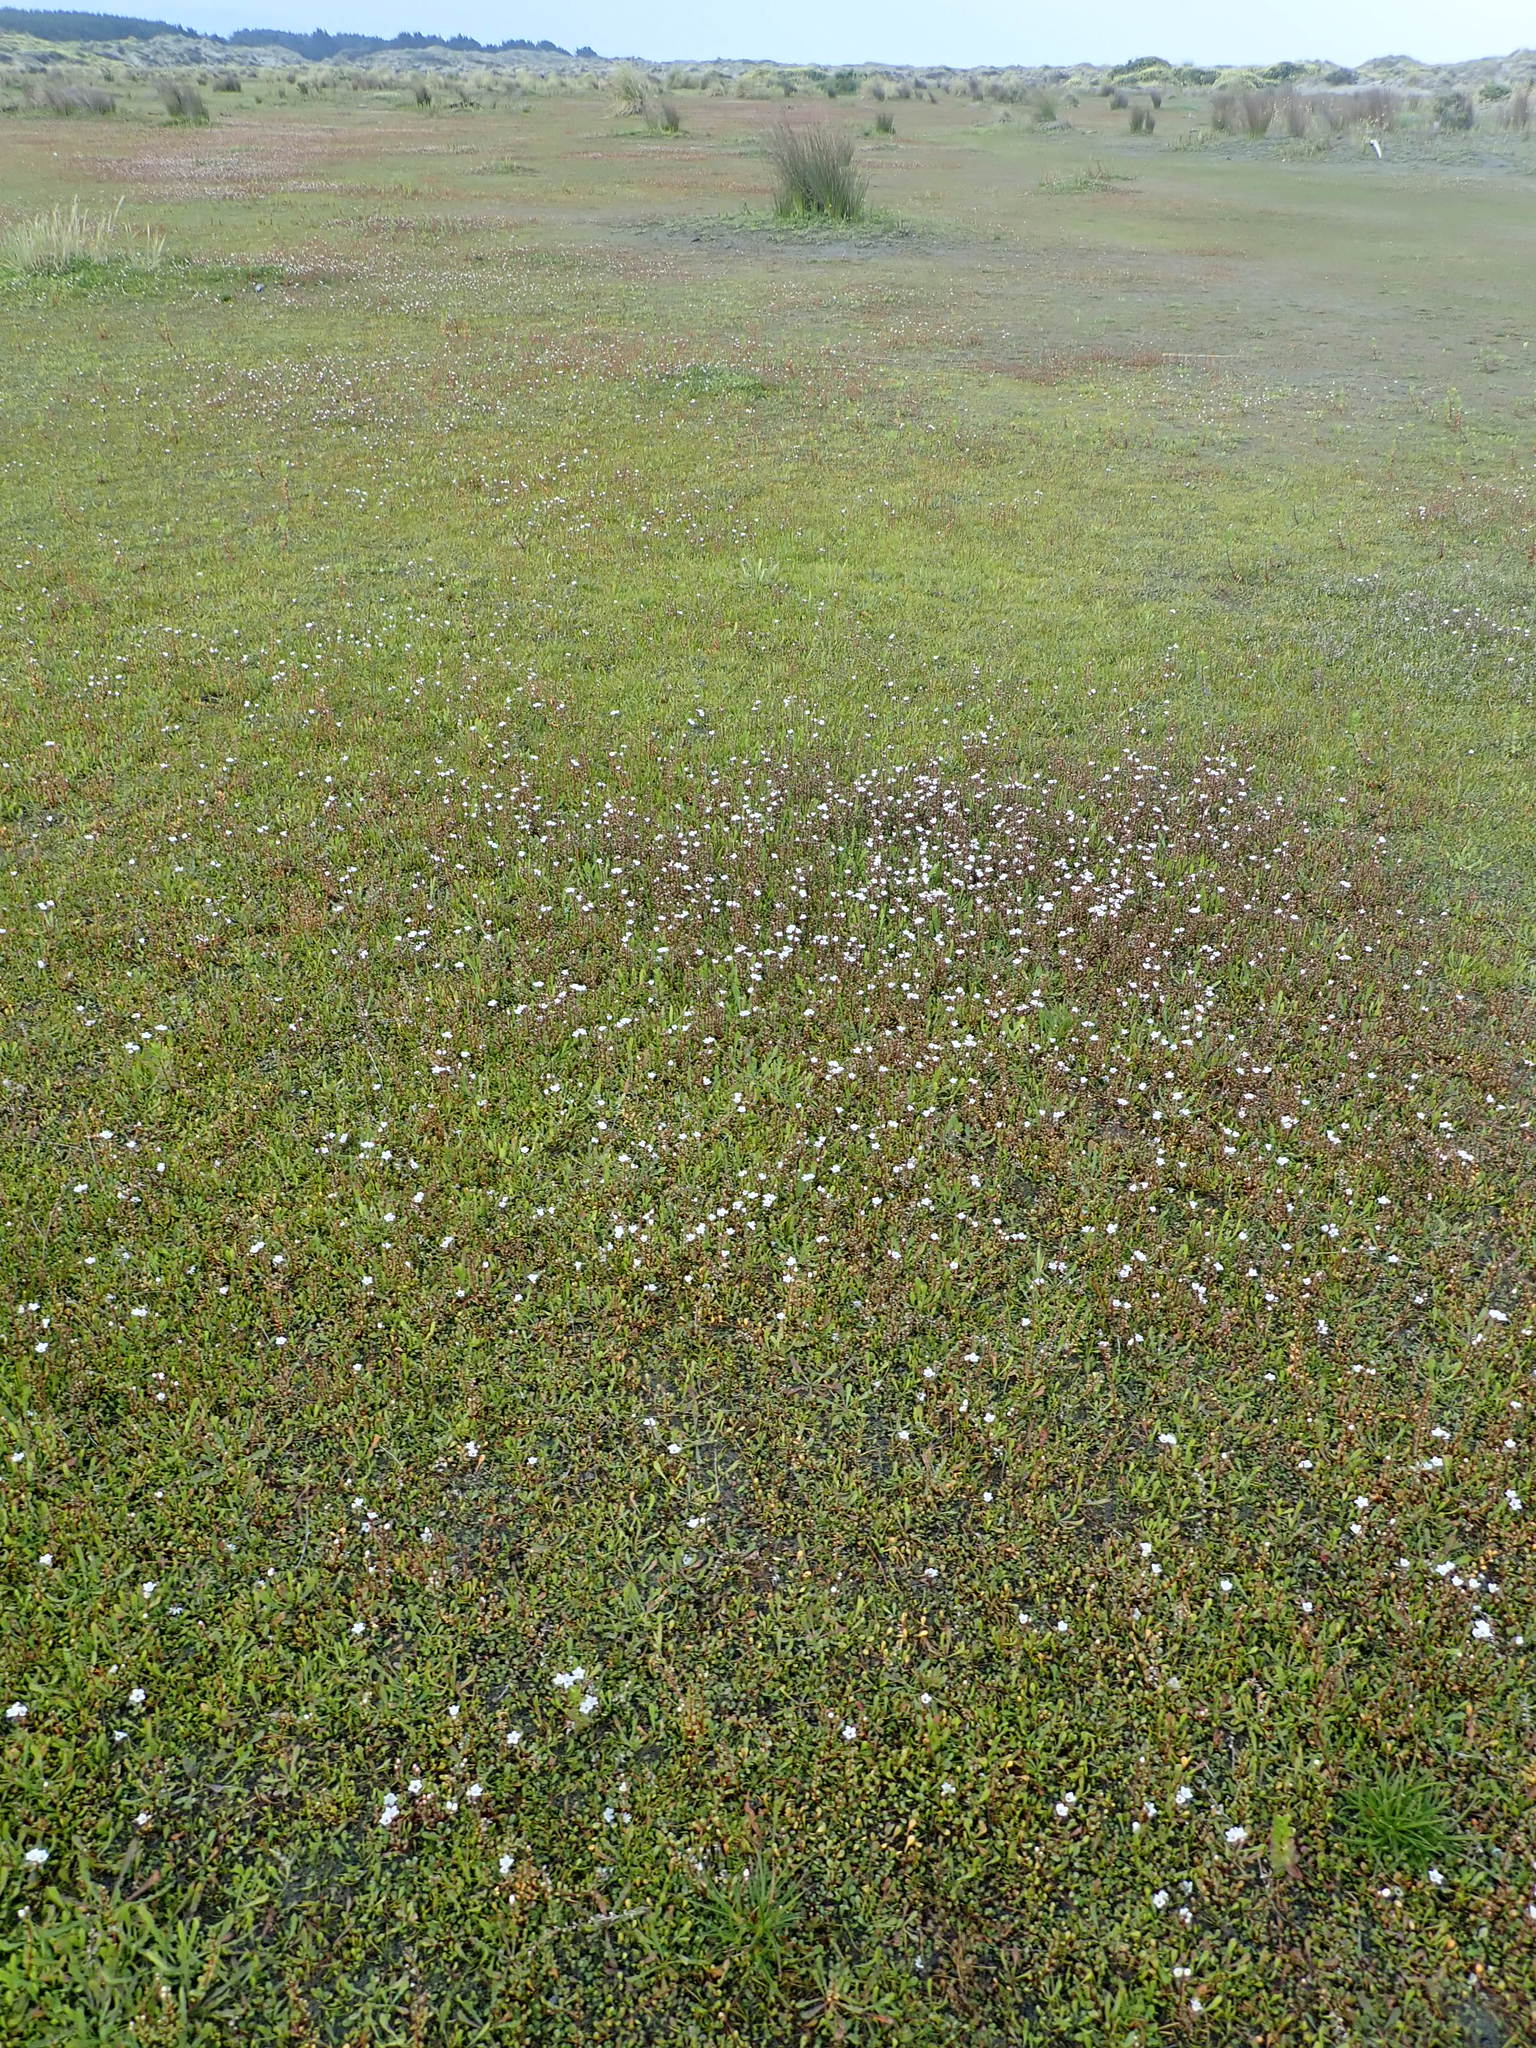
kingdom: Plantae
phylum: Tracheophyta
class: Magnoliopsida
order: Ericales
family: Primulaceae
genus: Samolus
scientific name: Samolus repens
